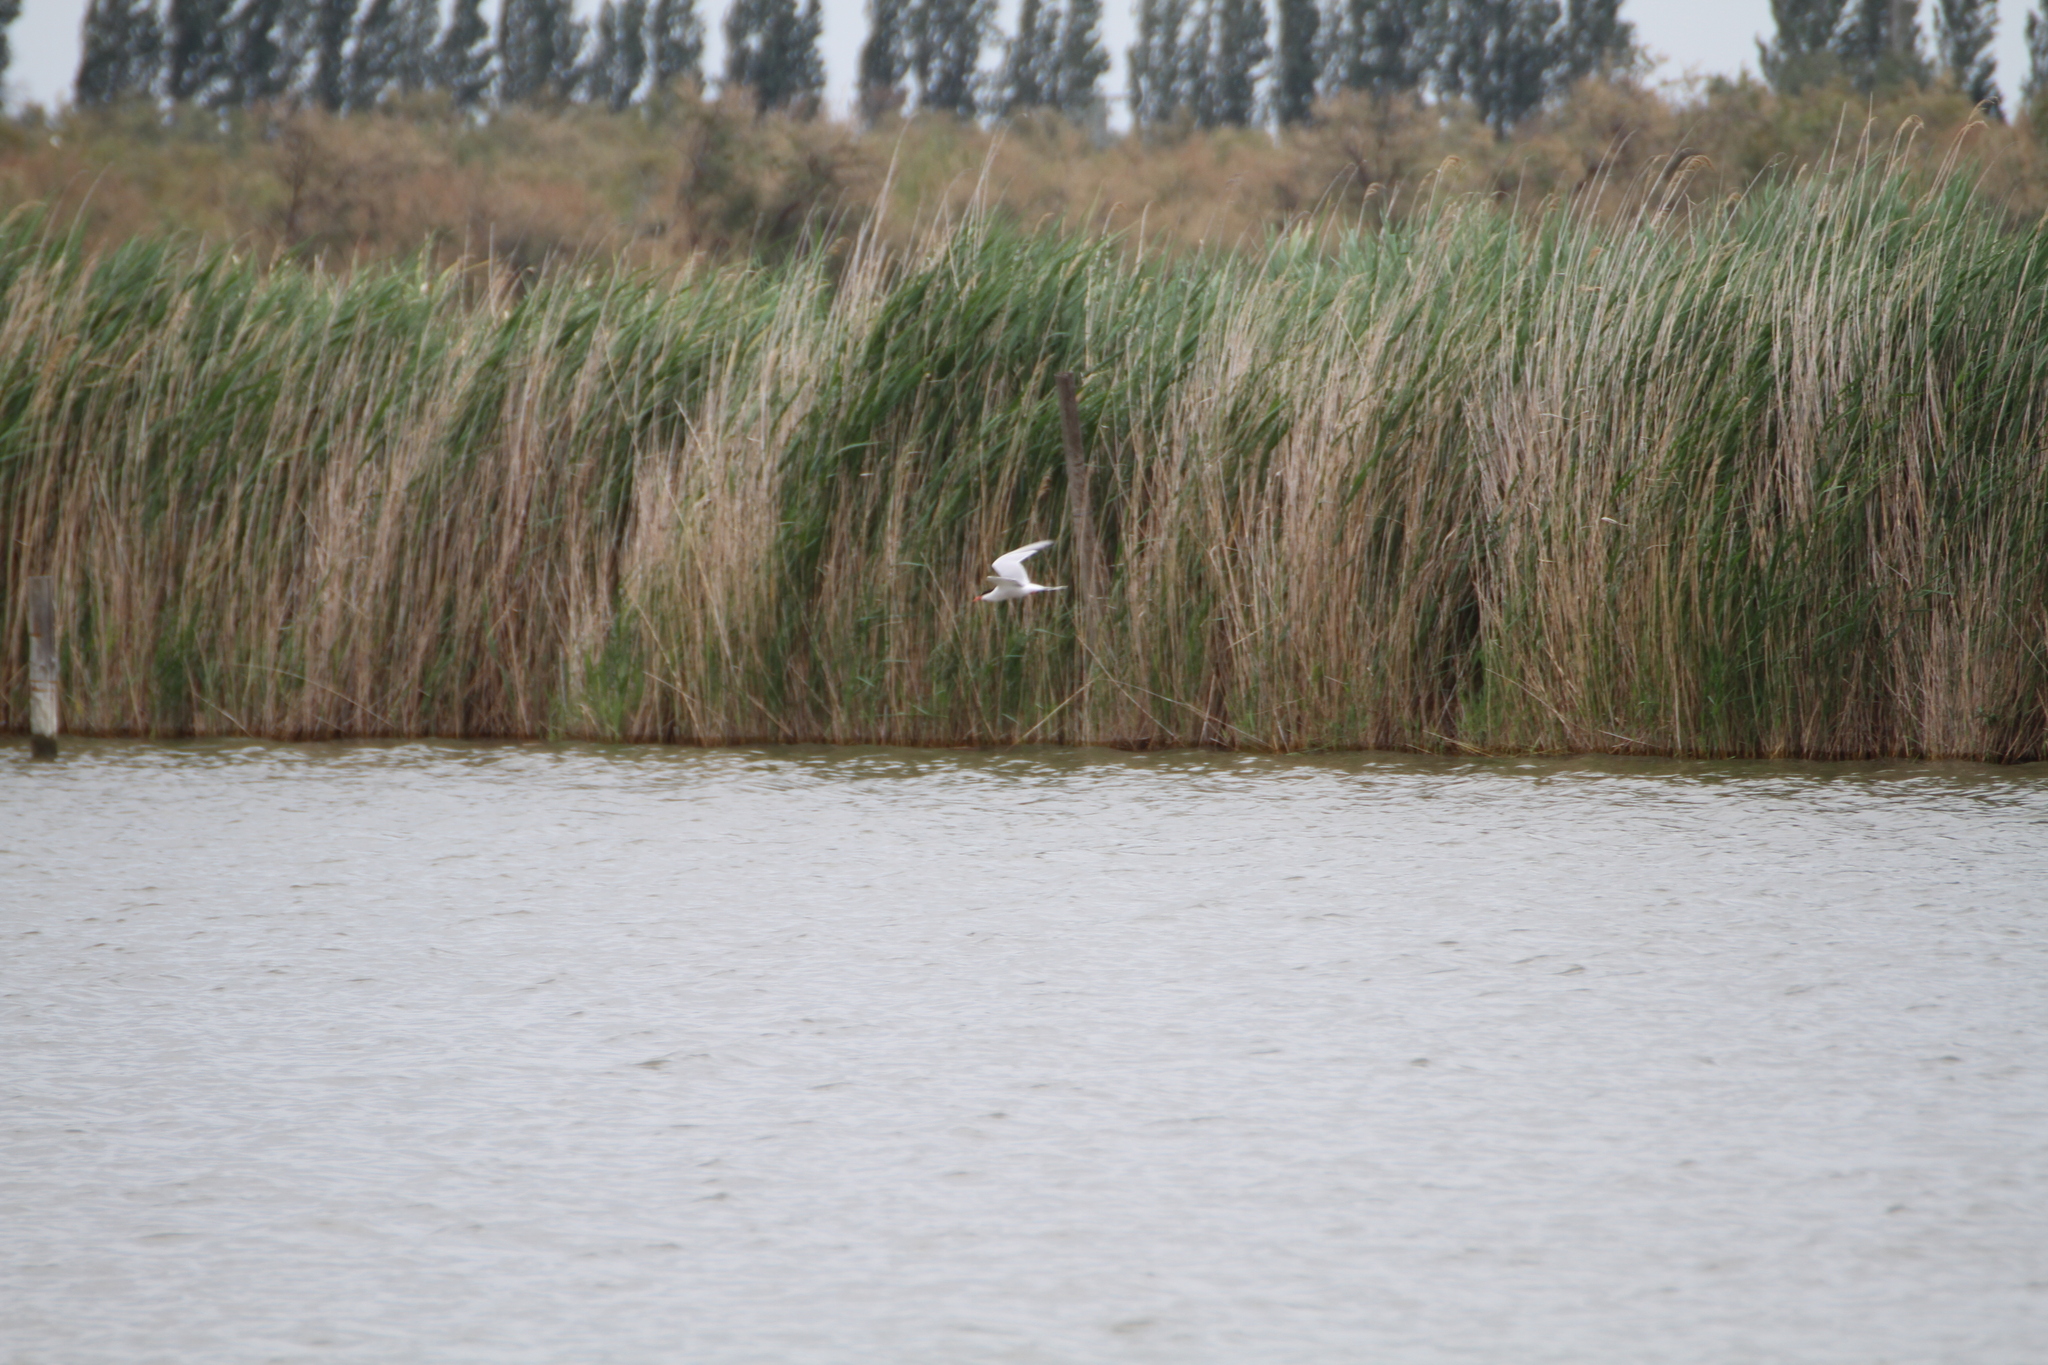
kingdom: Animalia
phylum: Chordata
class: Aves
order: Charadriiformes
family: Laridae
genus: Sterna
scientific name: Sterna hirundo
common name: Common tern
